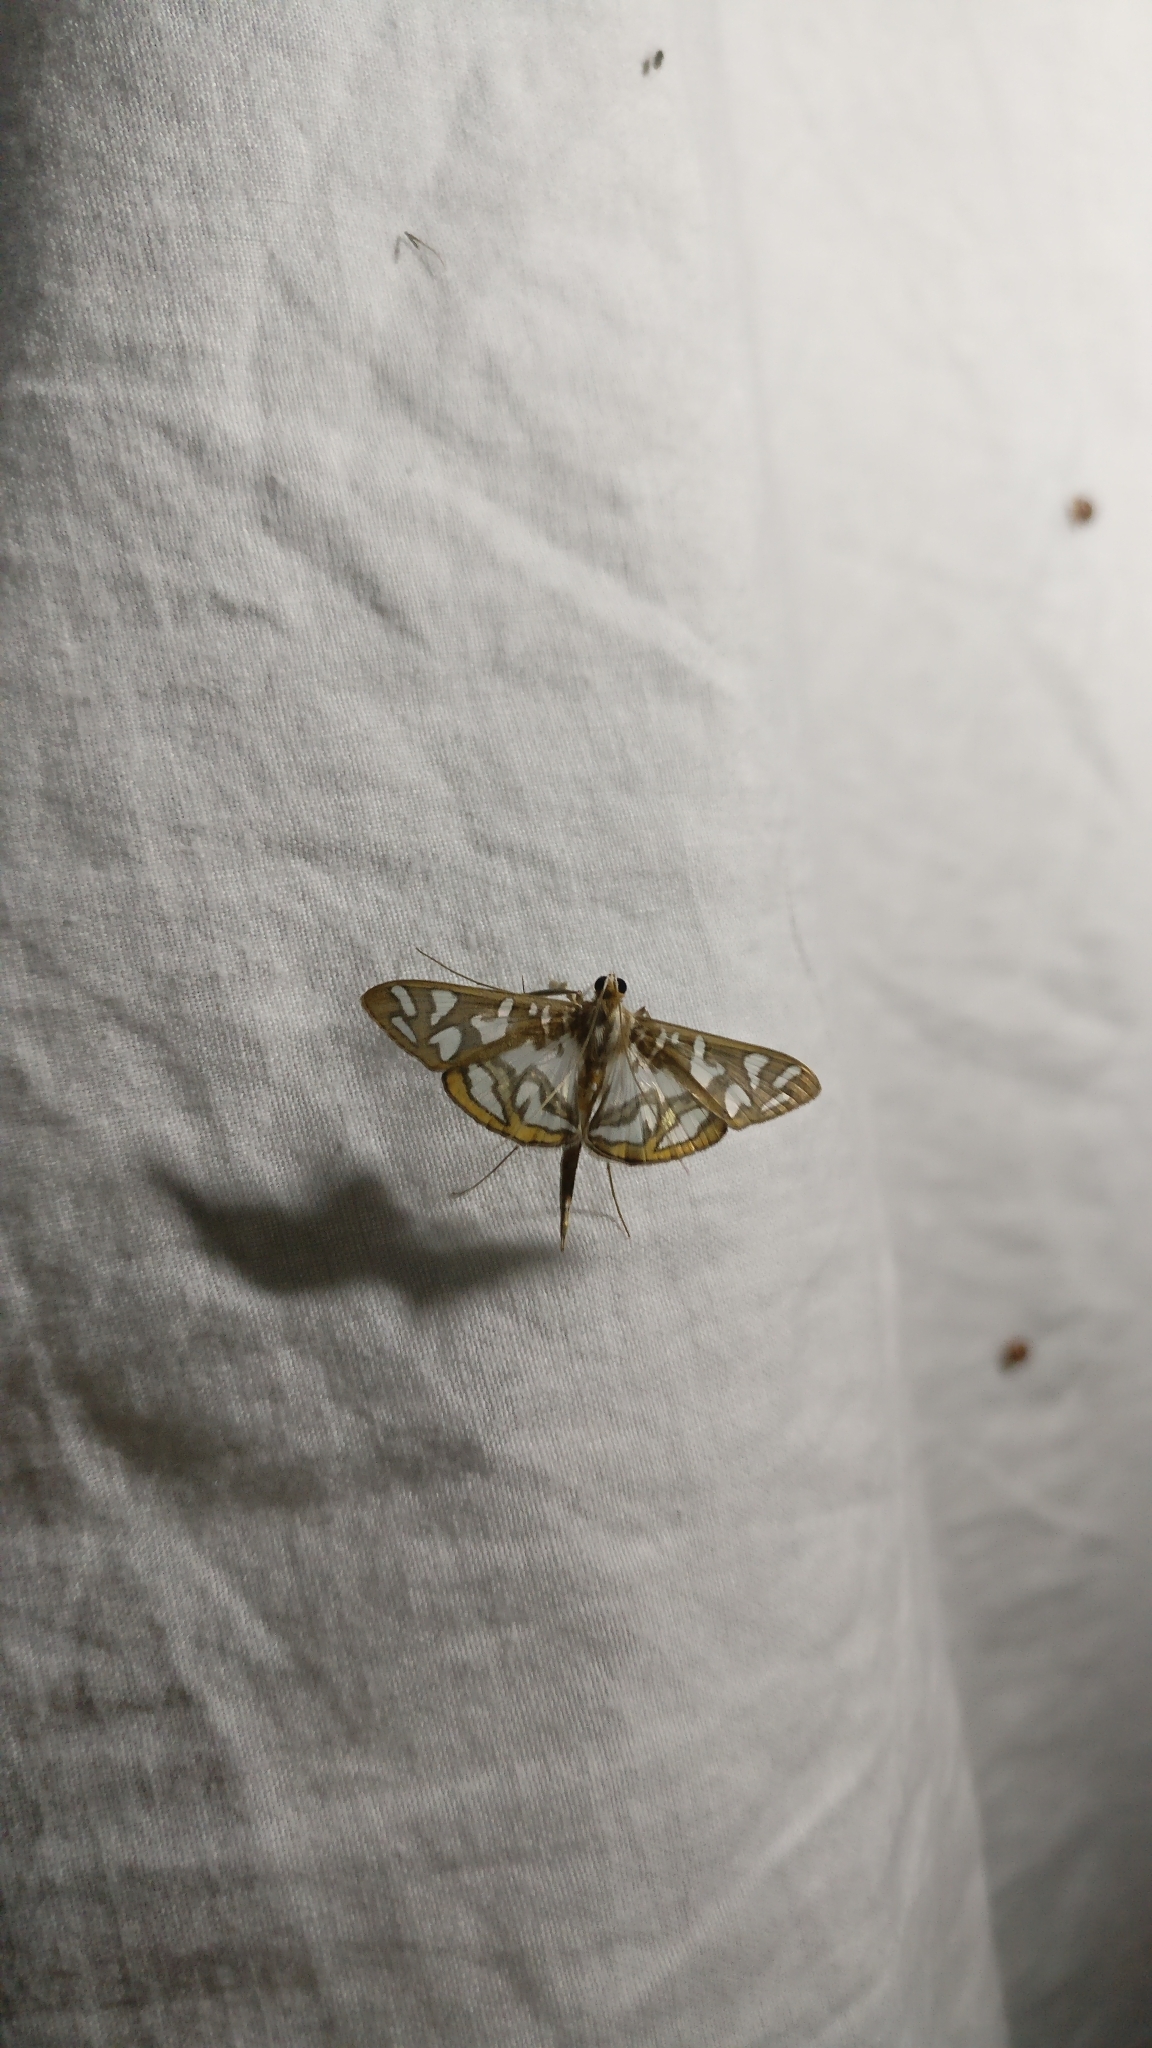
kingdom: Animalia
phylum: Arthropoda
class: Insecta
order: Lepidoptera
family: Crambidae
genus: Nausinoe
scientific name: Nausinoe perspectata
